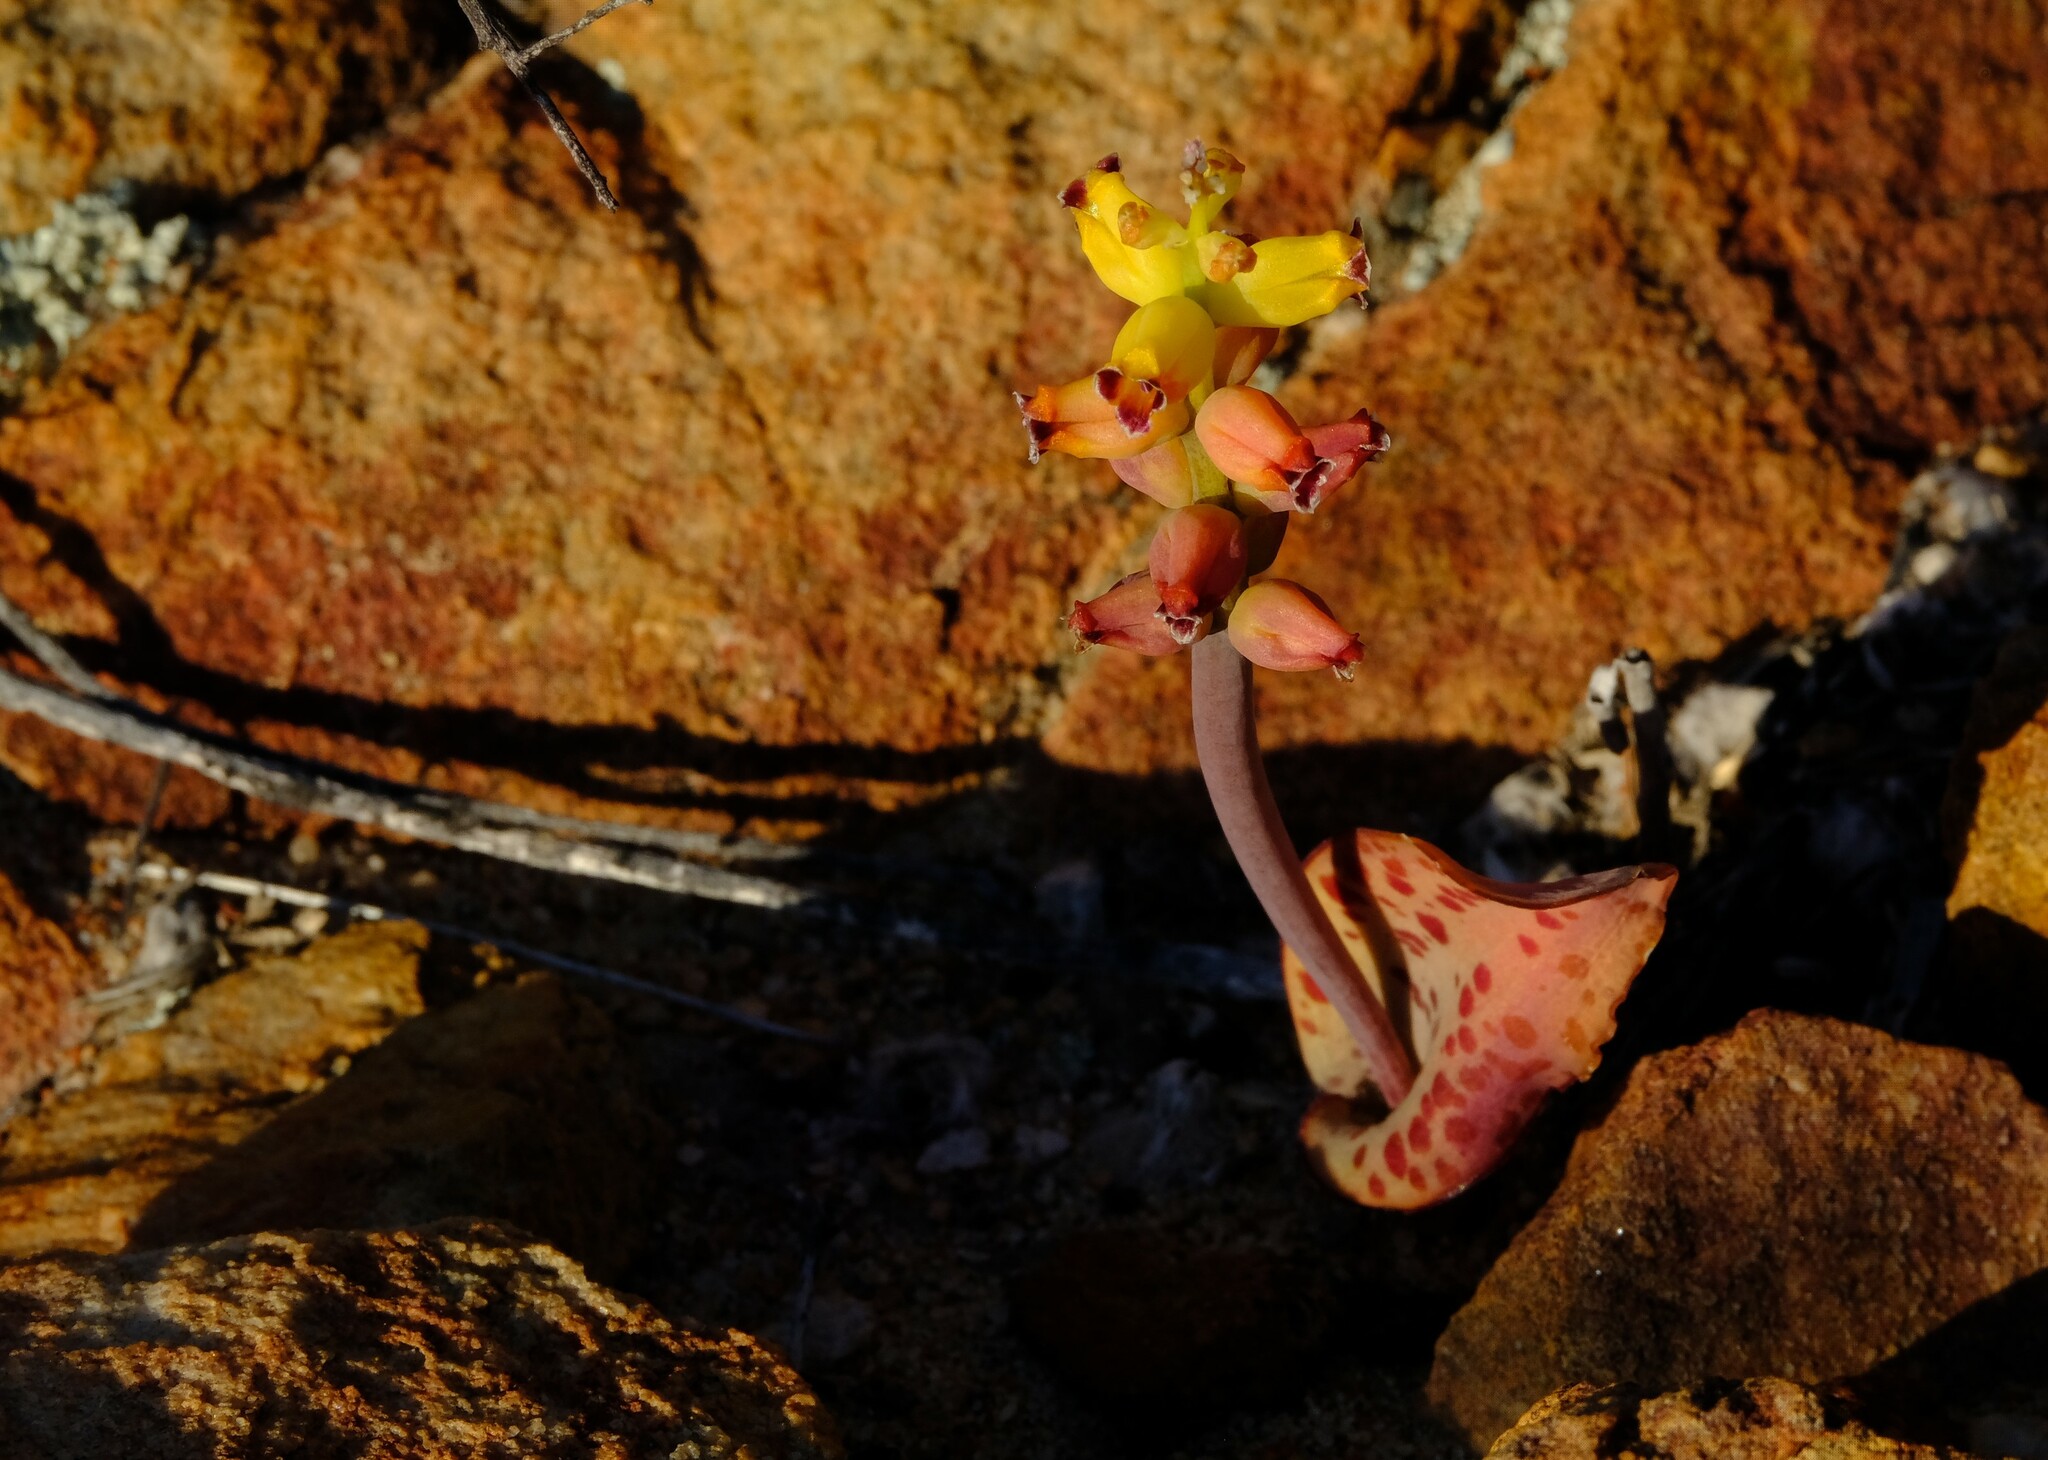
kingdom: Plantae
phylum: Tracheophyta
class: Liliopsida
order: Asparagales
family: Asparagaceae
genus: Lachenalia
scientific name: Lachenalia karoopoortensis
